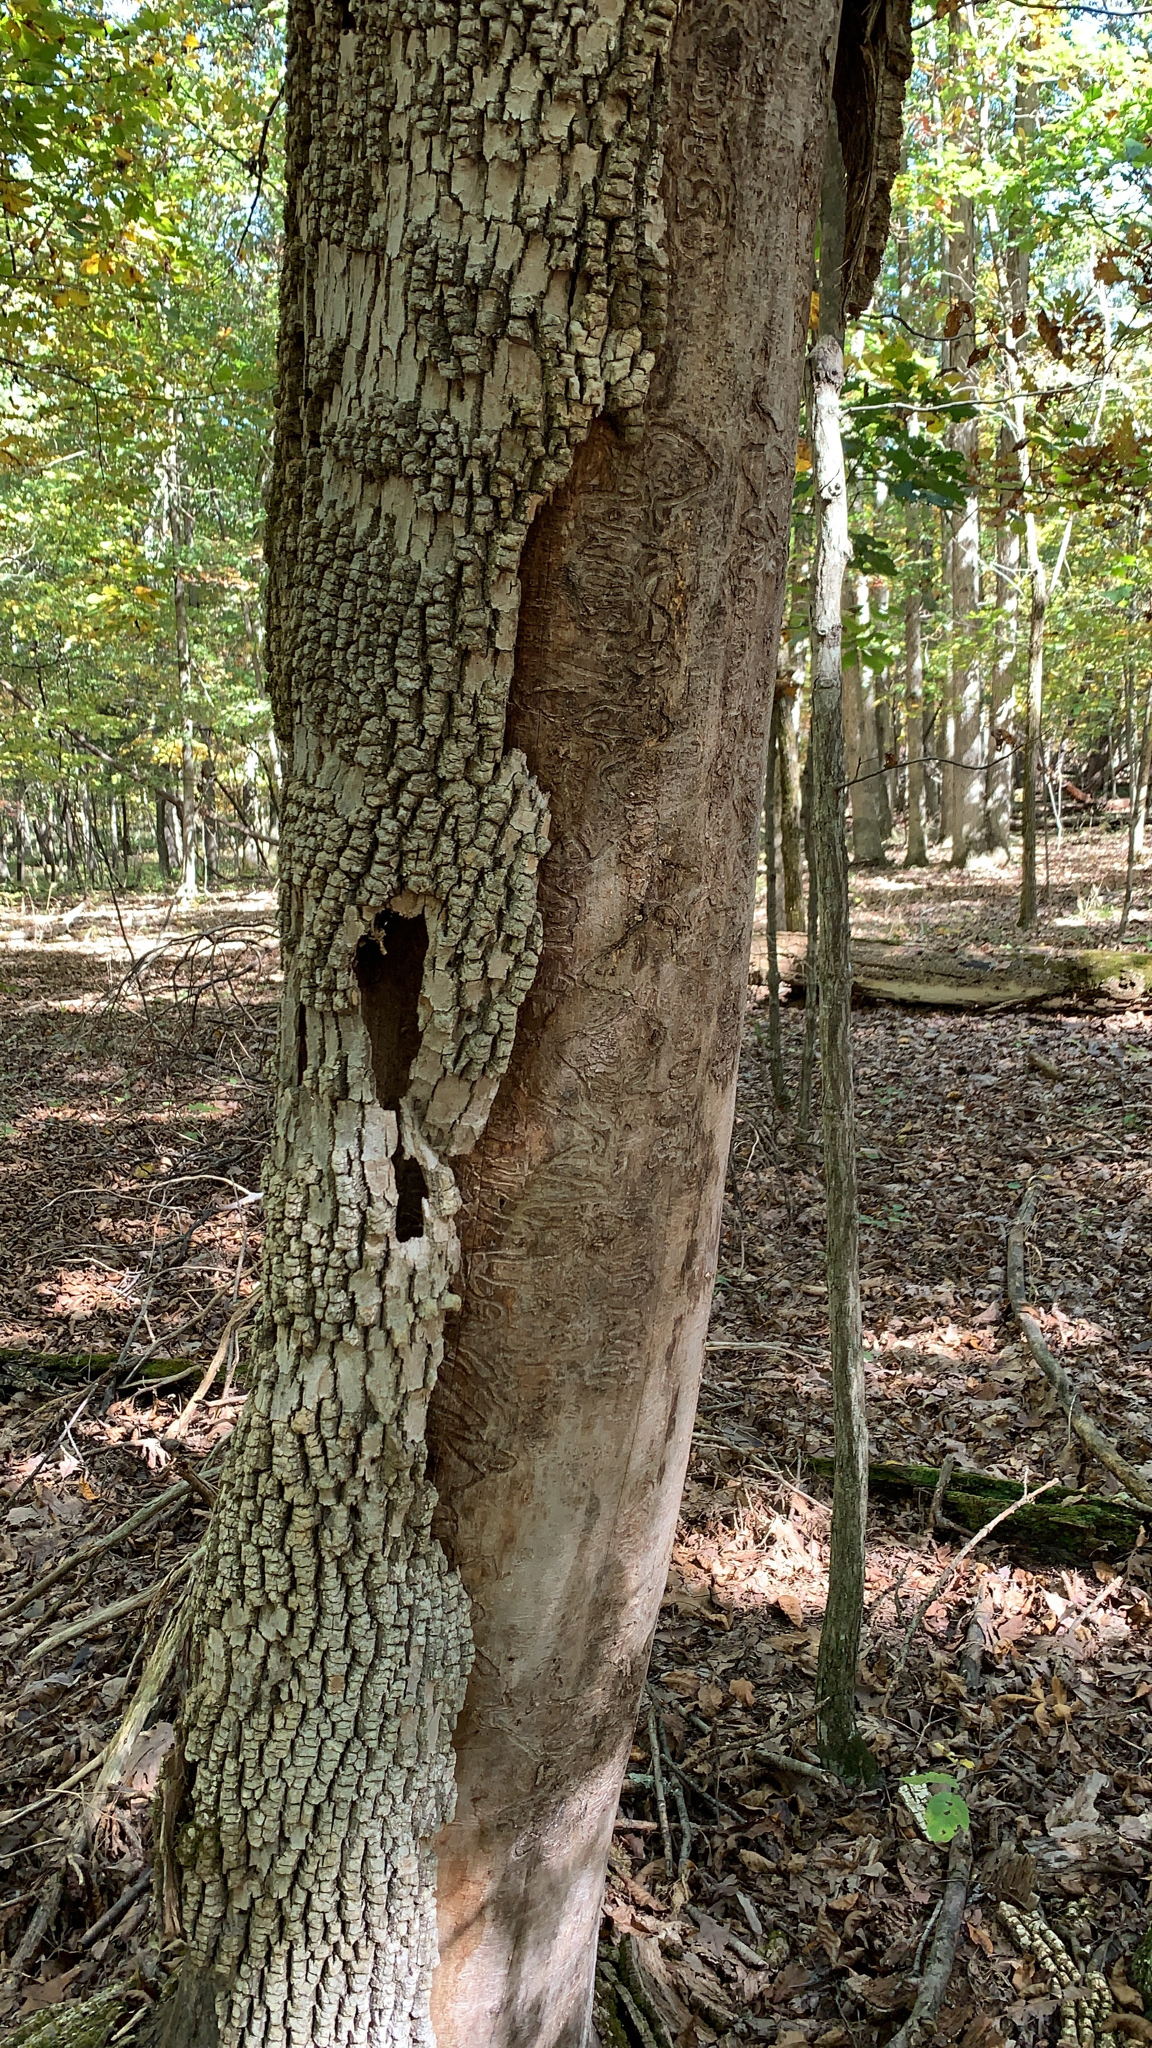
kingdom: Animalia
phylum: Arthropoda
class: Insecta
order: Coleoptera
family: Buprestidae
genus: Agrilus
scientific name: Agrilus planipennis
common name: Emerald ash borer
